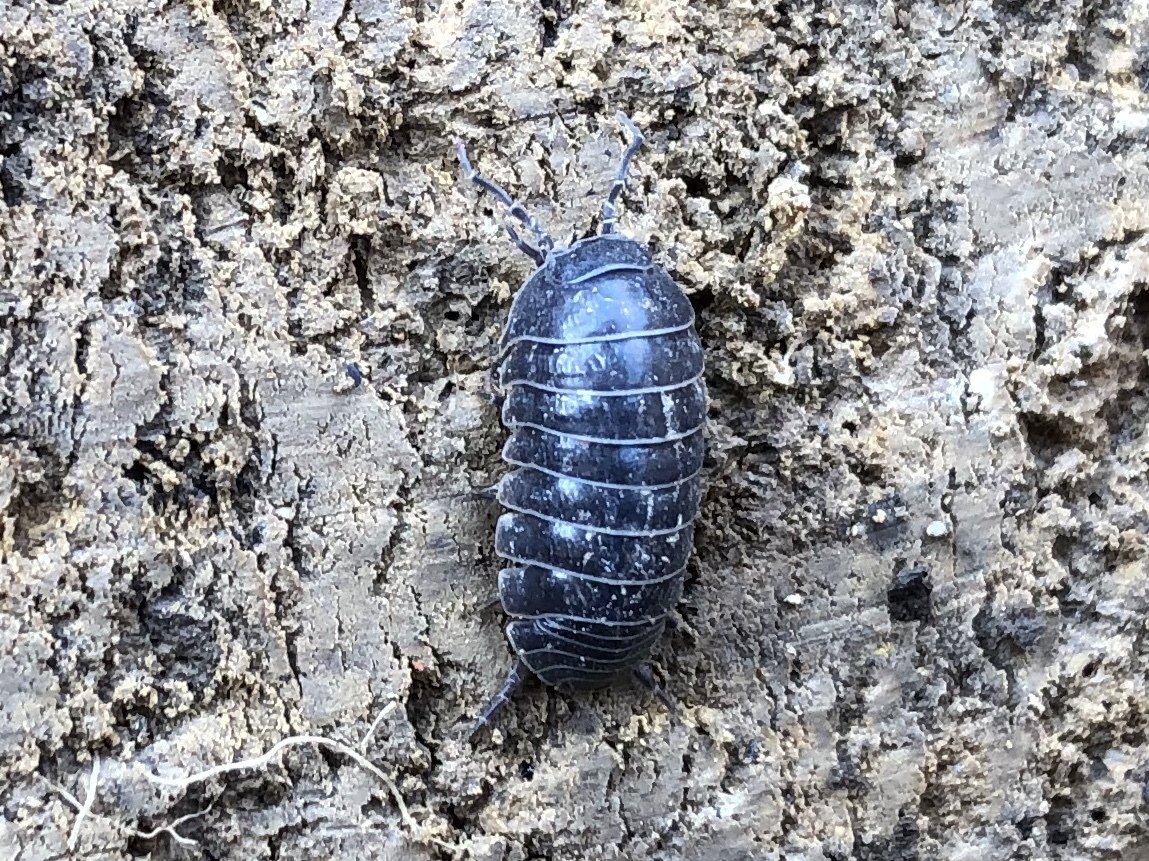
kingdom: Animalia
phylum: Arthropoda
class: Malacostraca
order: Isopoda
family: Armadillidiidae
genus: Armadillidium
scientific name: Armadillidium vulgare
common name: Common pill woodlouse
